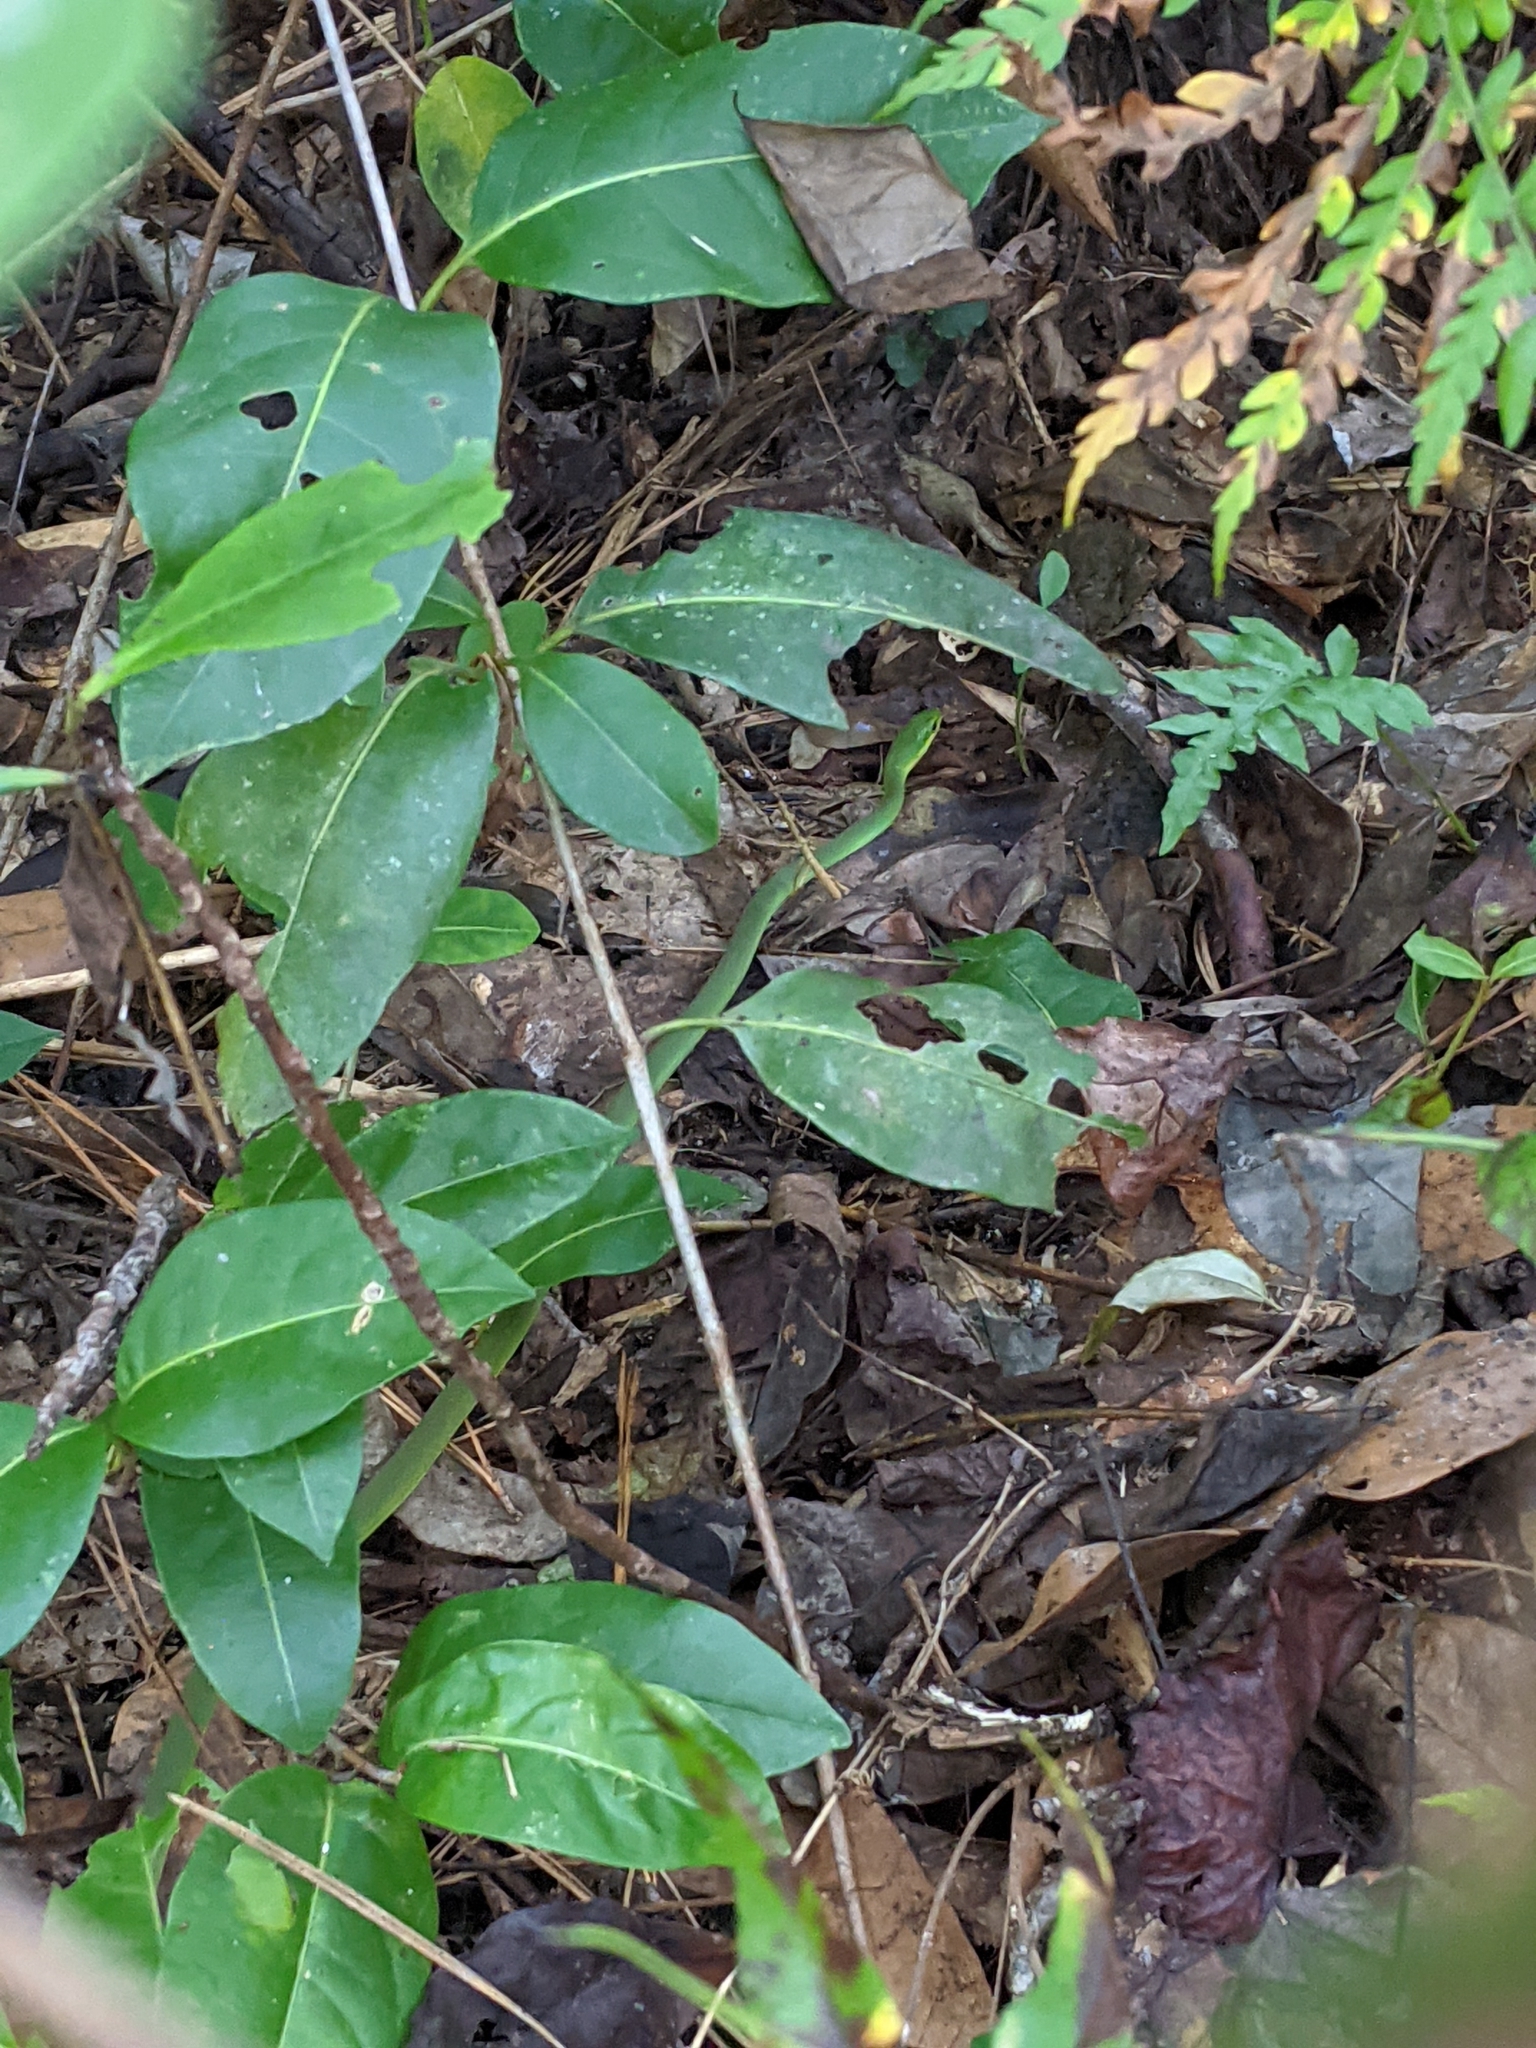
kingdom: Animalia
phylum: Chordata
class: Squamata
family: Colubridae
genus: Opheodrys
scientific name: Opheodrys aestivus
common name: Rough greensnake
